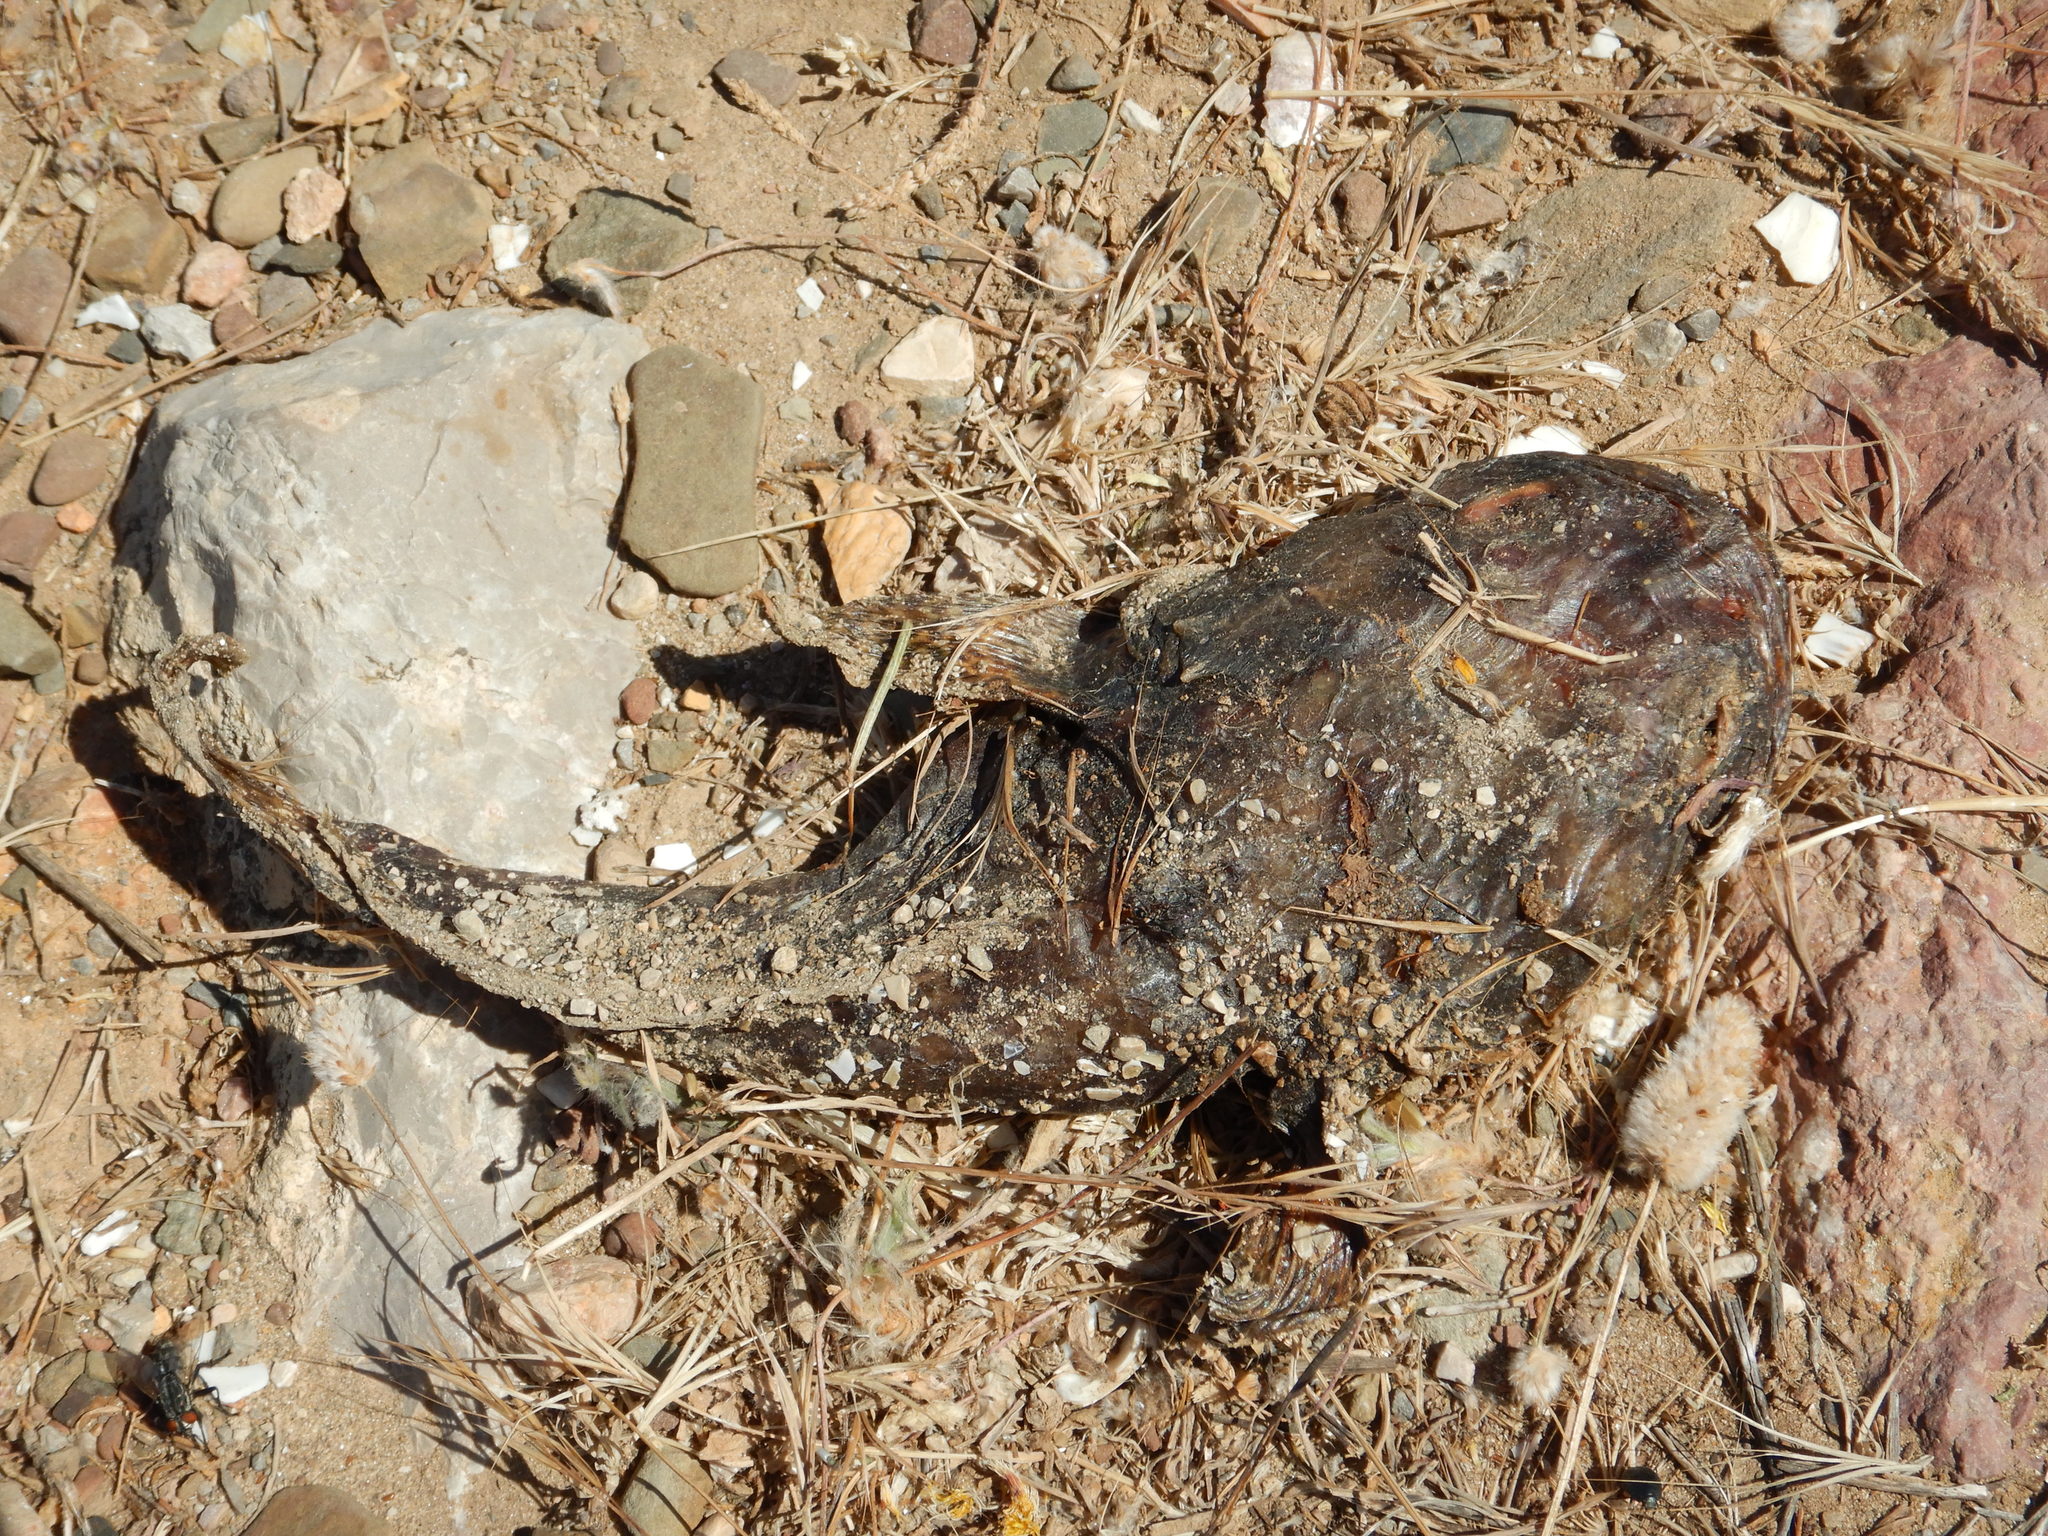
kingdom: Animalia
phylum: Chordata
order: Batrachoidiformes
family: Batrachoididae
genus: Halobatrachus
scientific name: Halobatrachus didactylus
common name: Lusitanian toadfish
